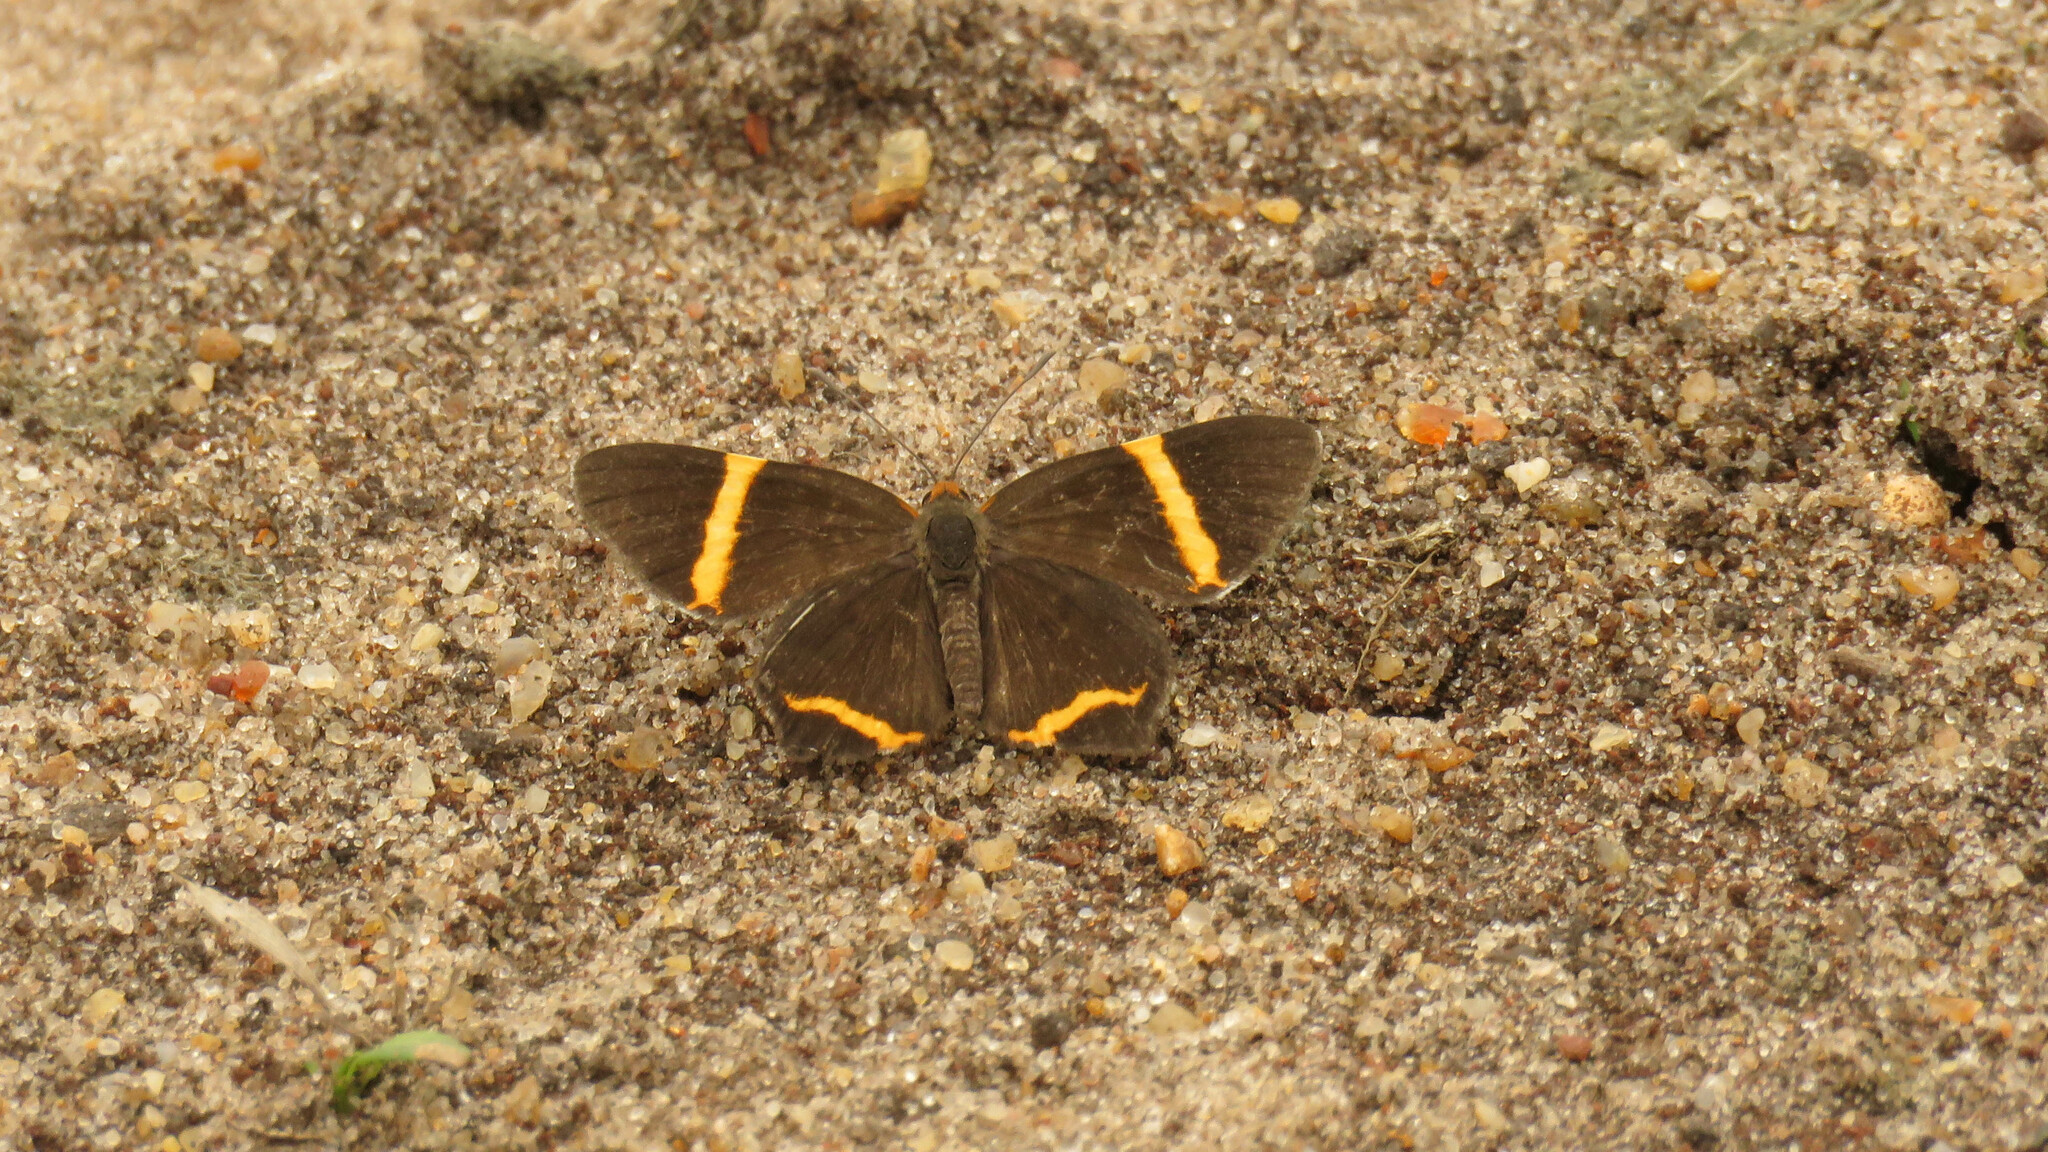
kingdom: Animalia
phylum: Arthropoda
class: Insecta
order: Lepidoptera
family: Riodinidae
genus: Riodina
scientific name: Riodina lysippoides
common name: Little dancer metalmark
